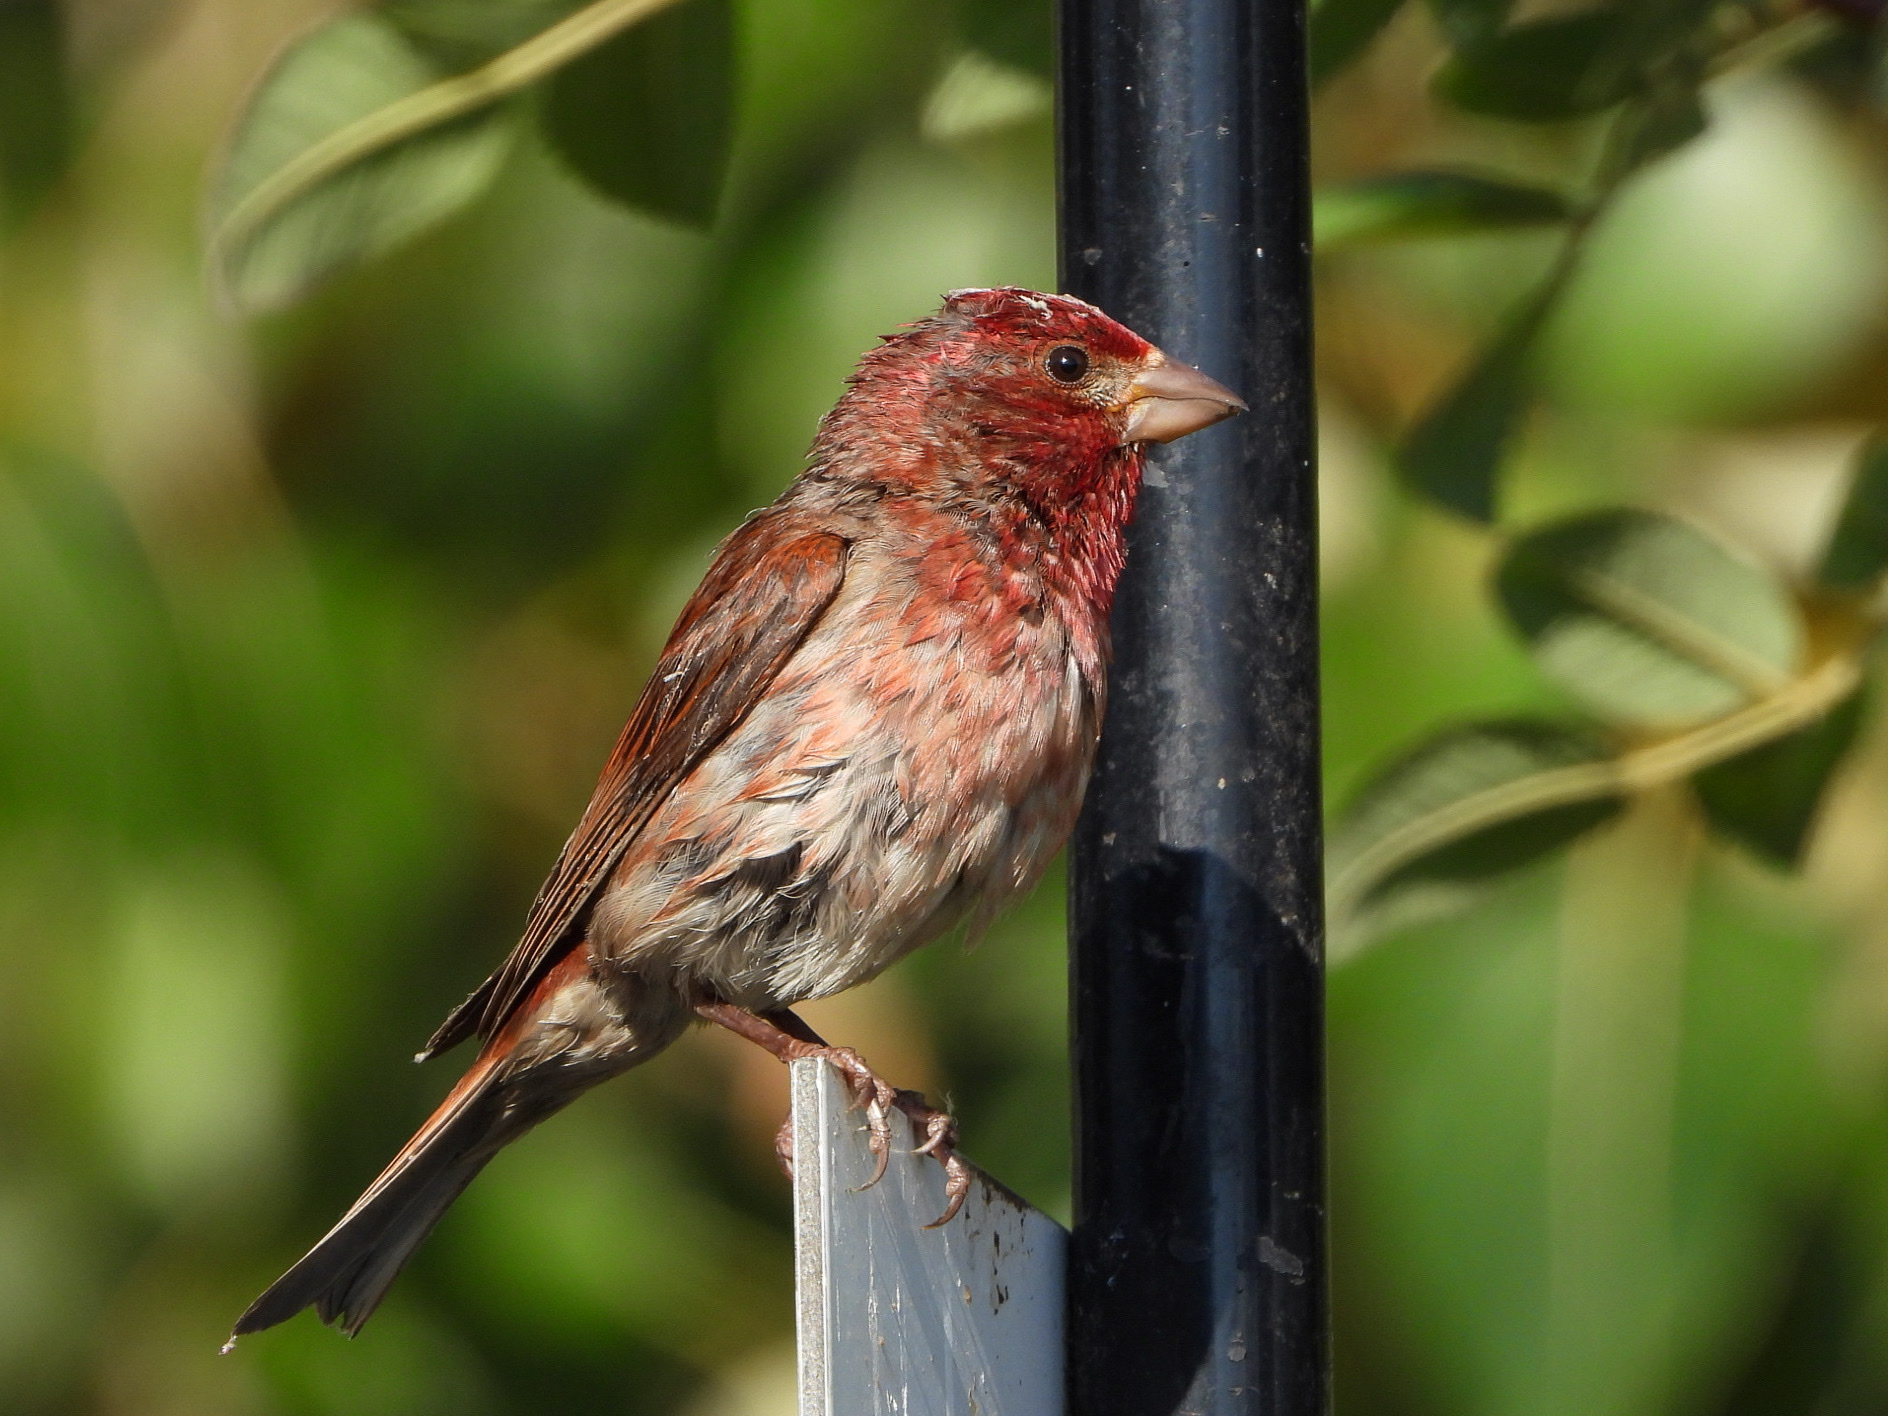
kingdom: Animalia
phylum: Chordata
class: Aves
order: Passeriformes
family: Fringillidae
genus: Haemorhous
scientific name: Haemorhous purpureus
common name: Purple finch
